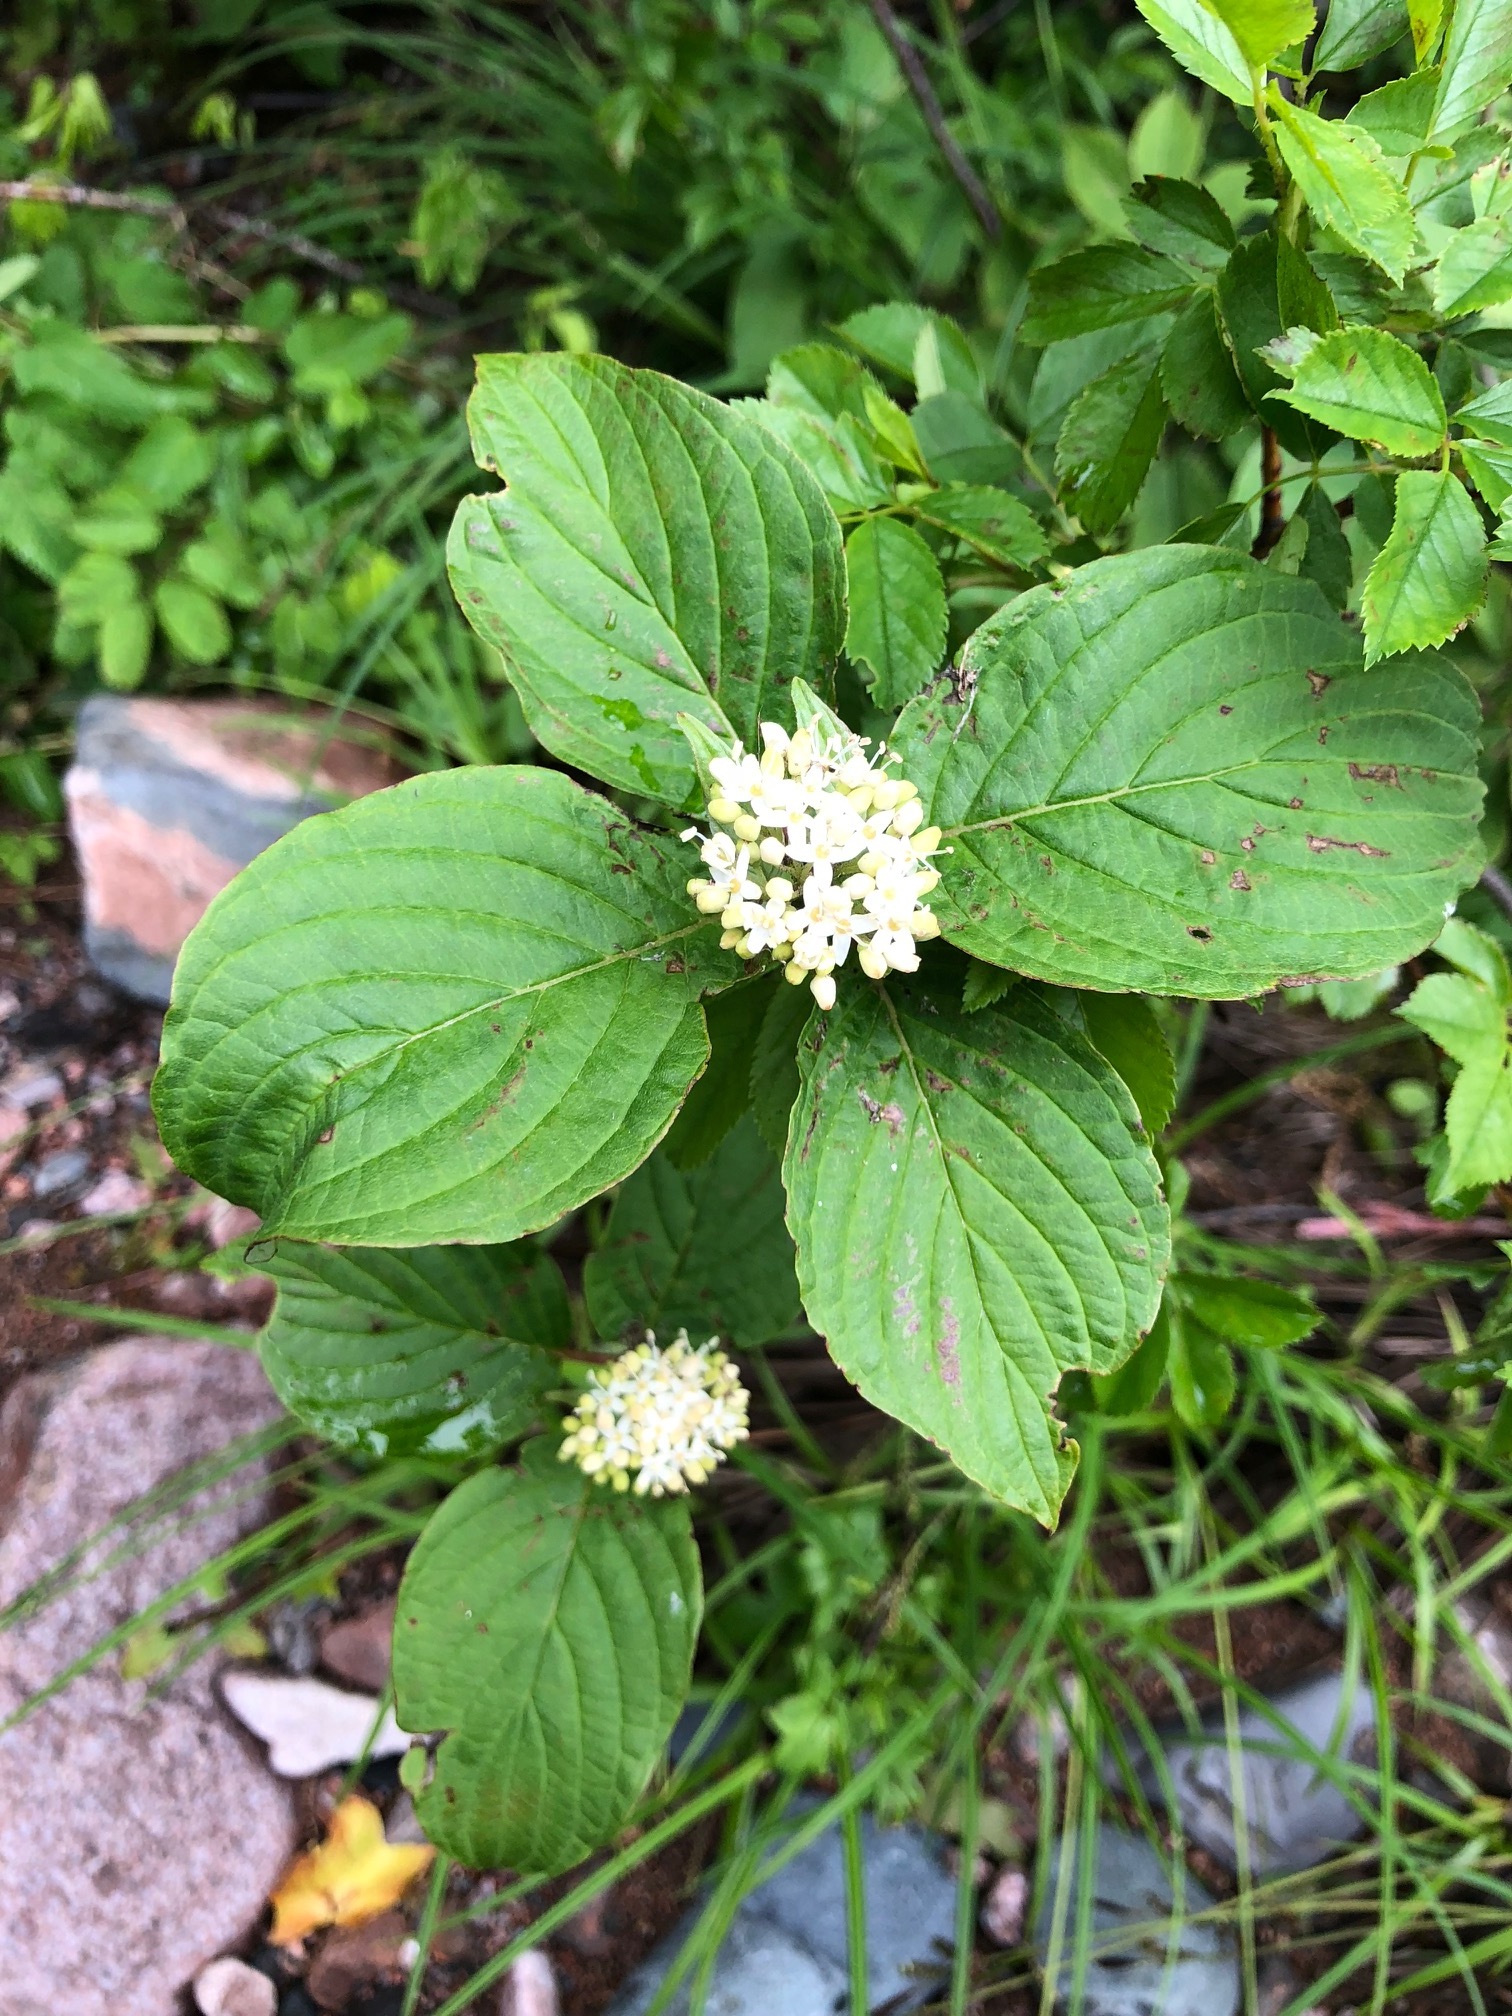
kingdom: Plantae
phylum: Tracheophyta
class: Magnoliopsida
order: Cornales
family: Cornaceae
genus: Cornus
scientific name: Cornus sericea
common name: Red-osier dogwood
